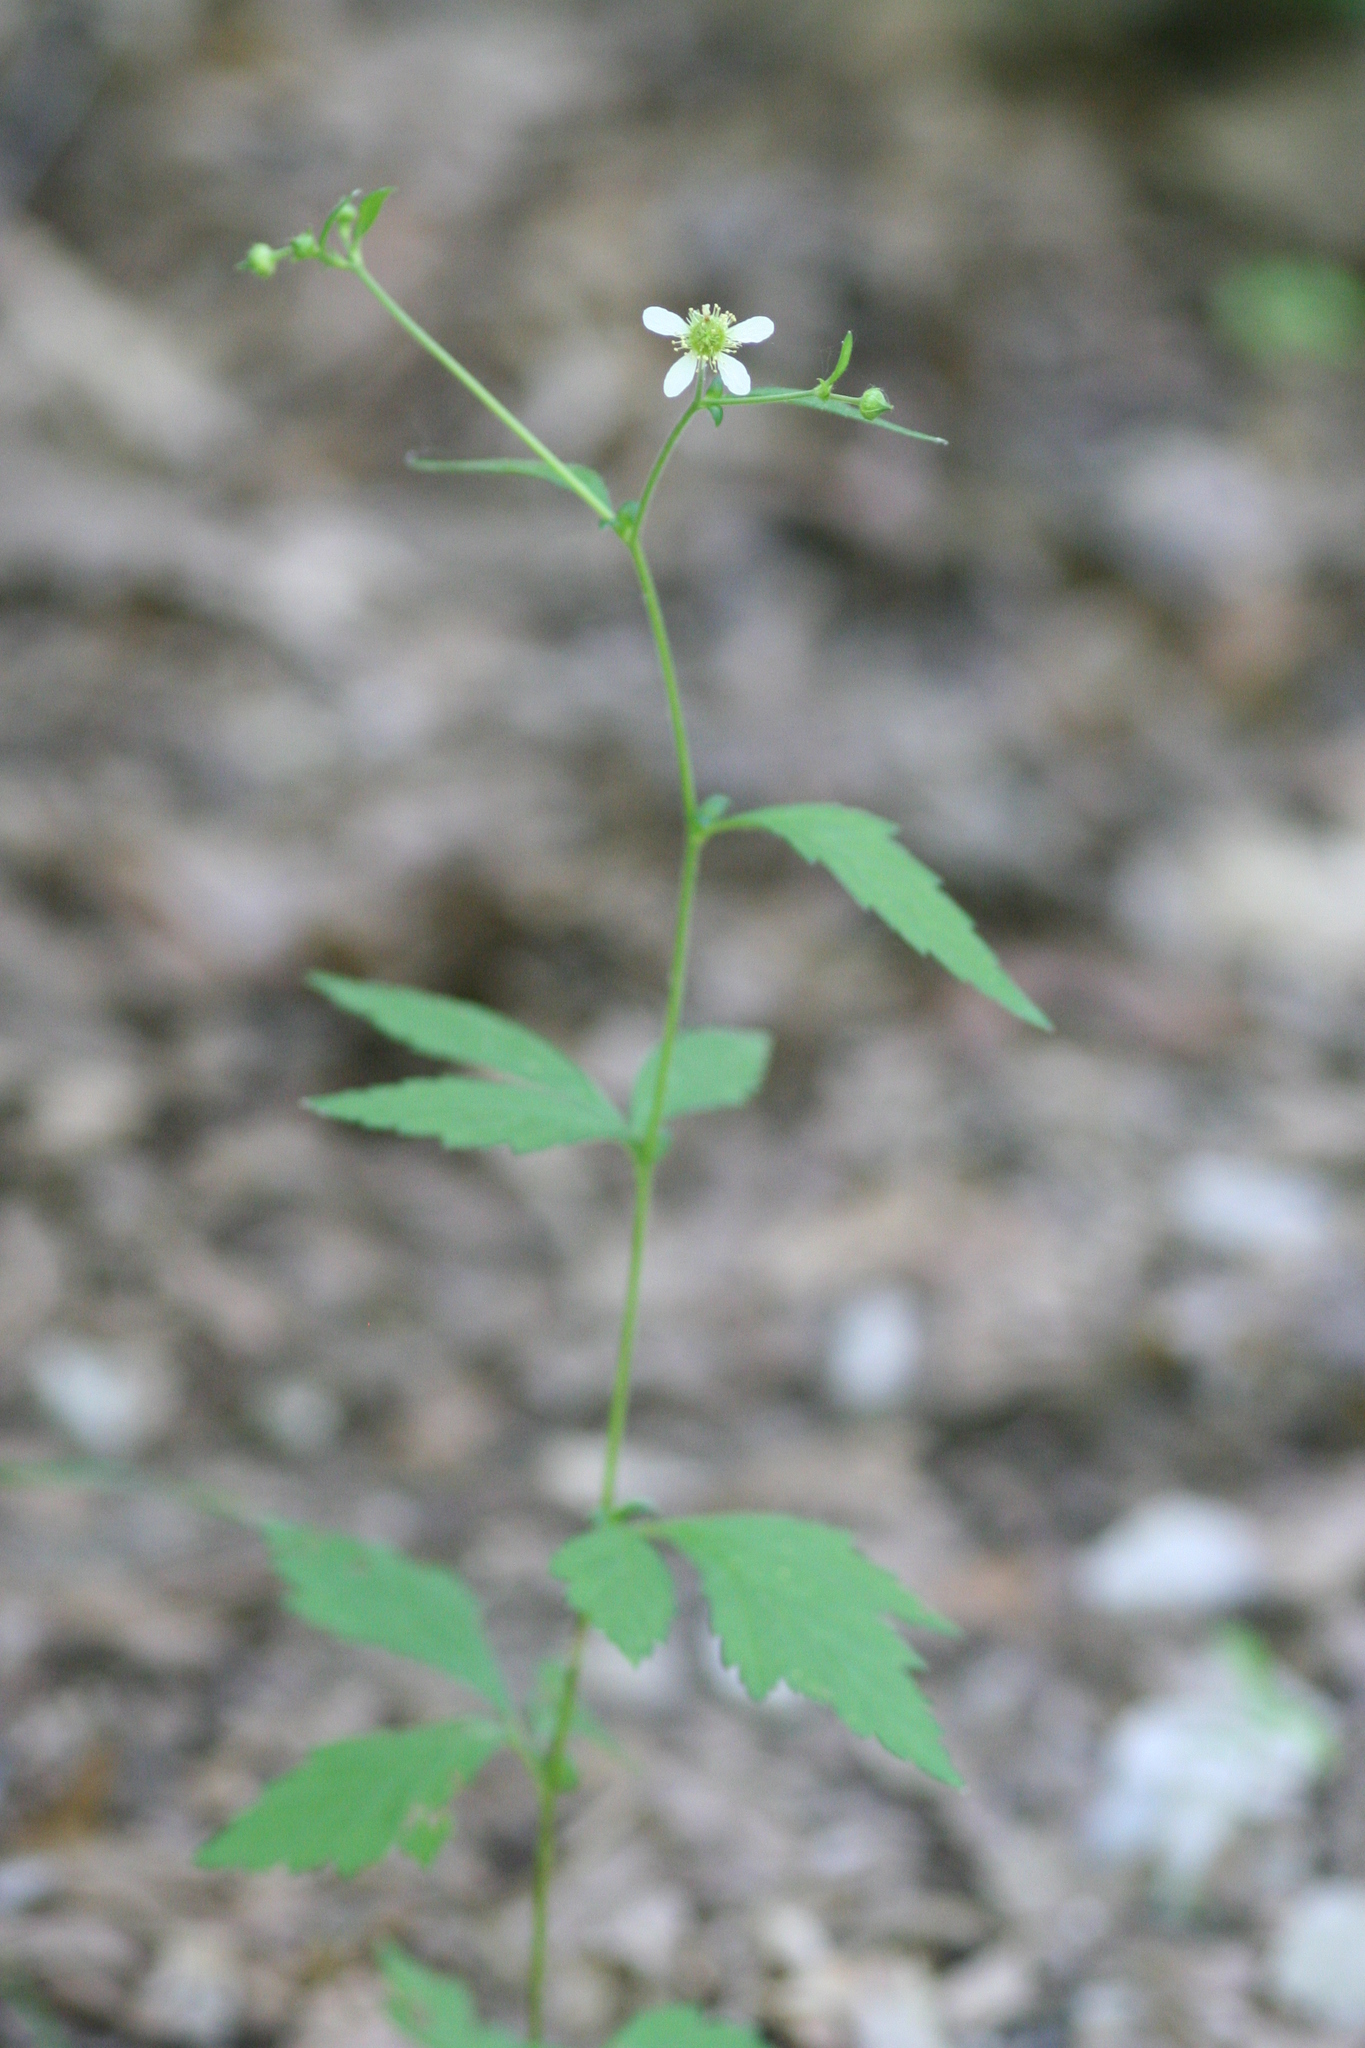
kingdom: Plantae
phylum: Tracheophyta
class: Magnoliopsida
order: Rosales
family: Rosaceae
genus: Geum
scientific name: Geum canadense
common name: White avens
